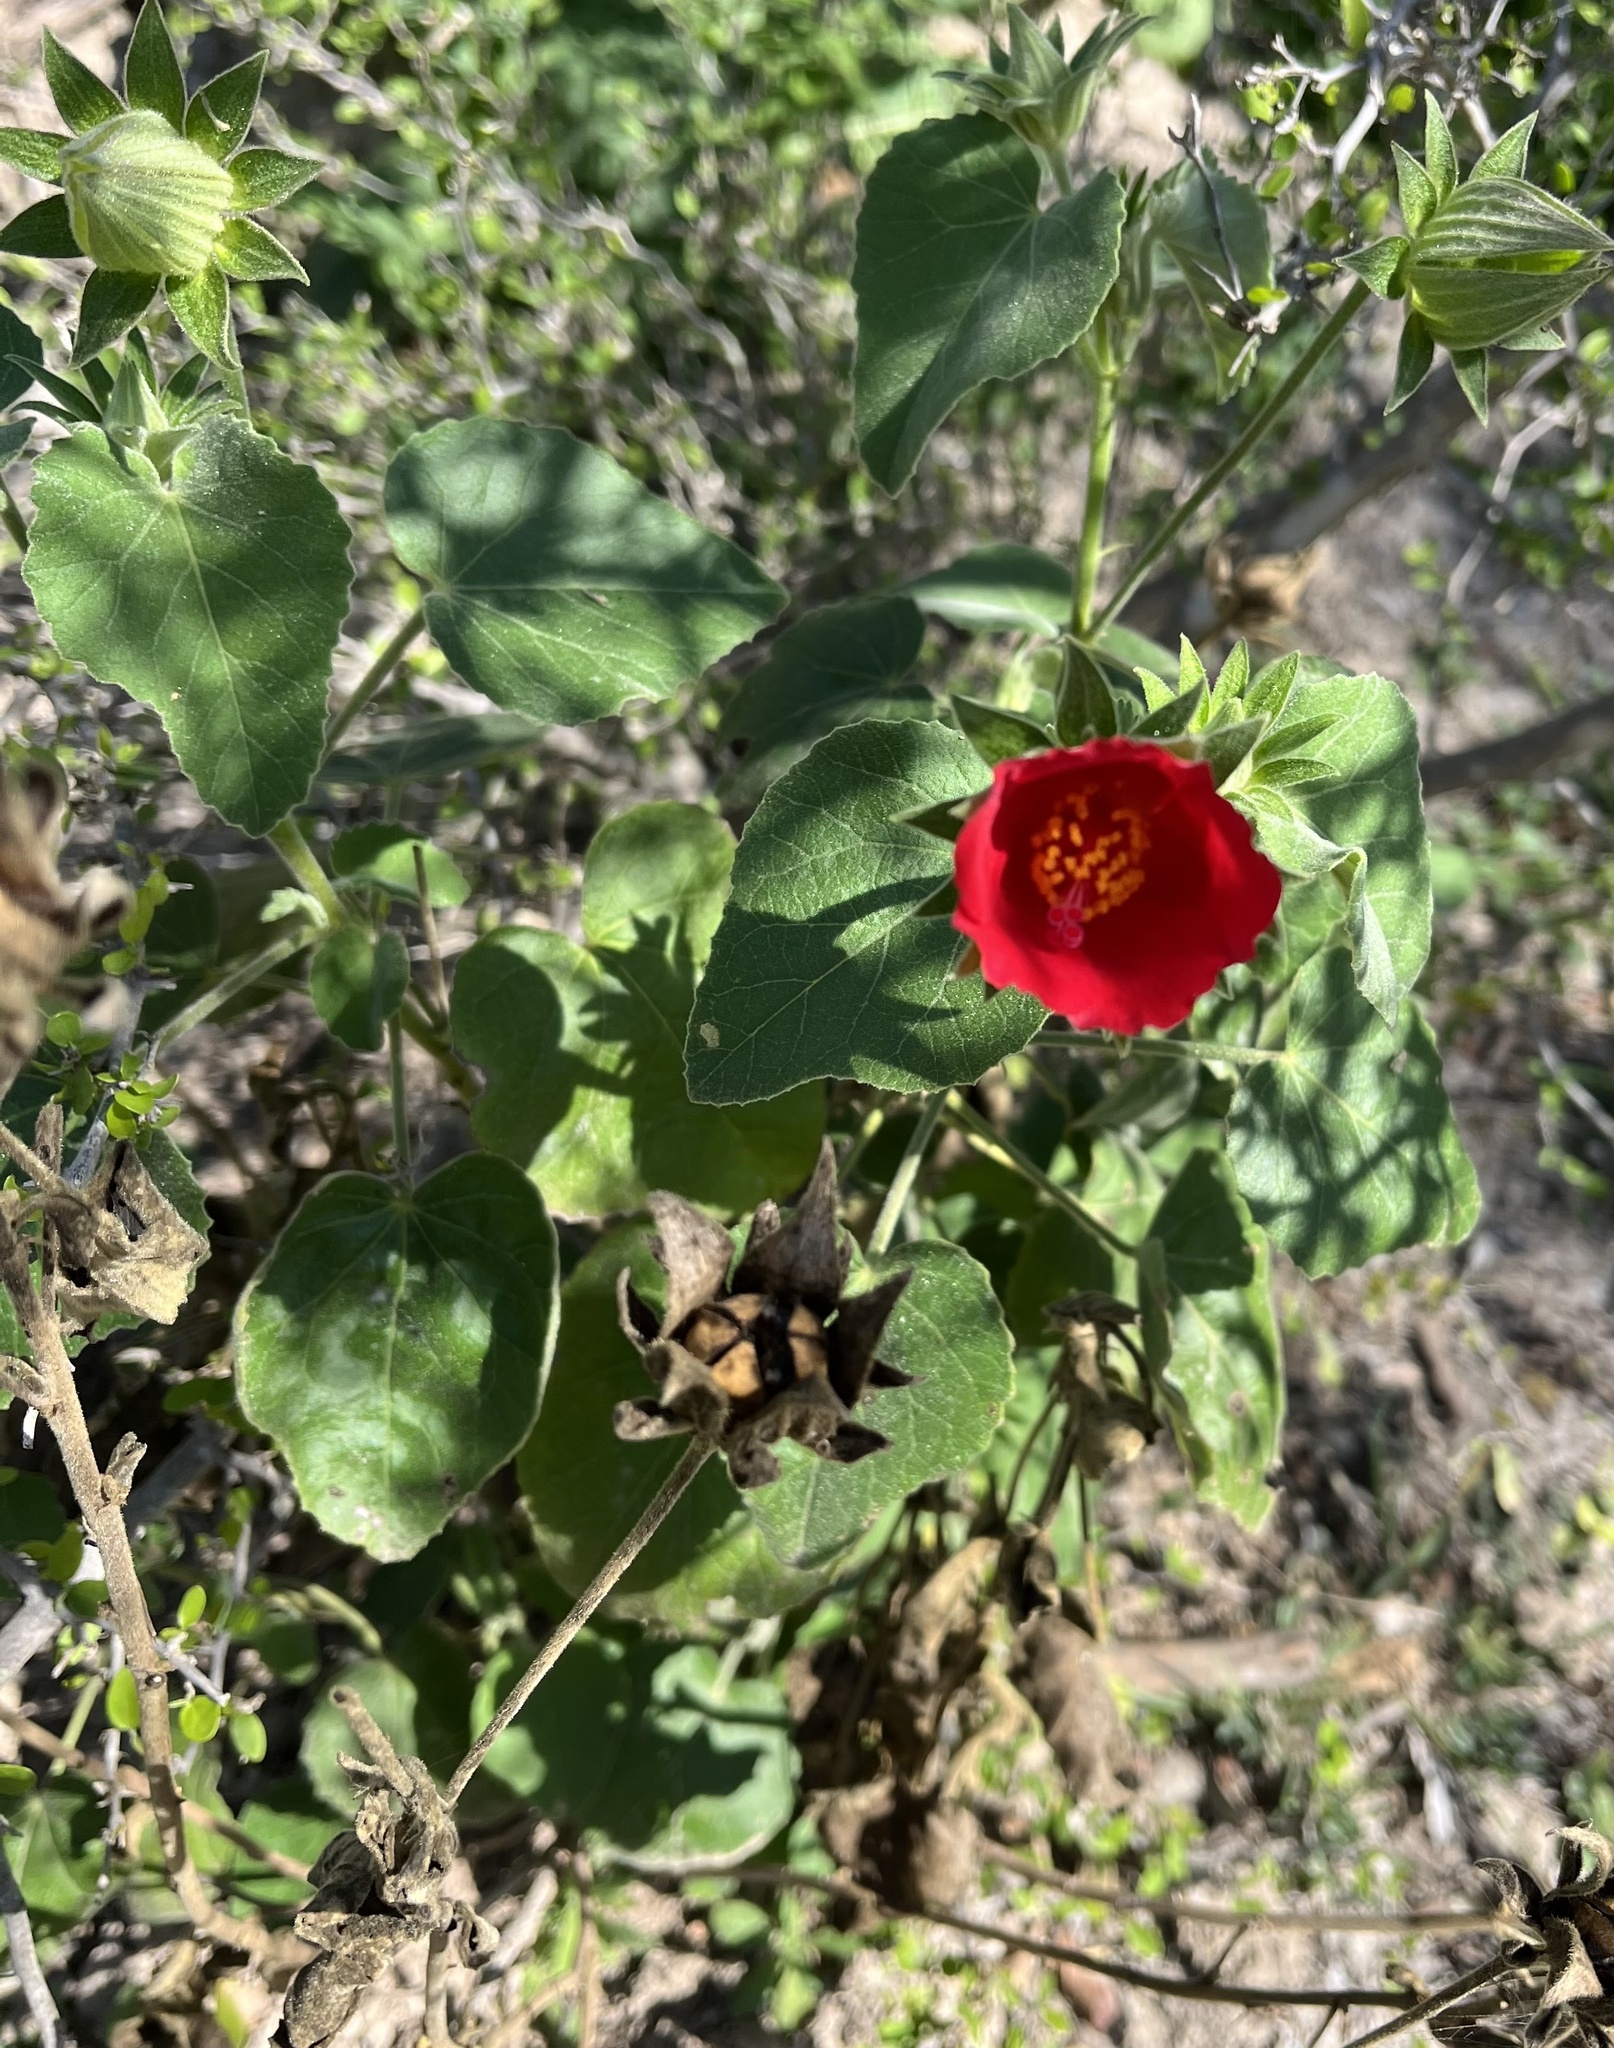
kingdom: Plantae
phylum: Tracheophyta
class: Magnoliopsida
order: Malvales
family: Malvaceae
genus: Hibiscus
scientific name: Hibiscus martianus
